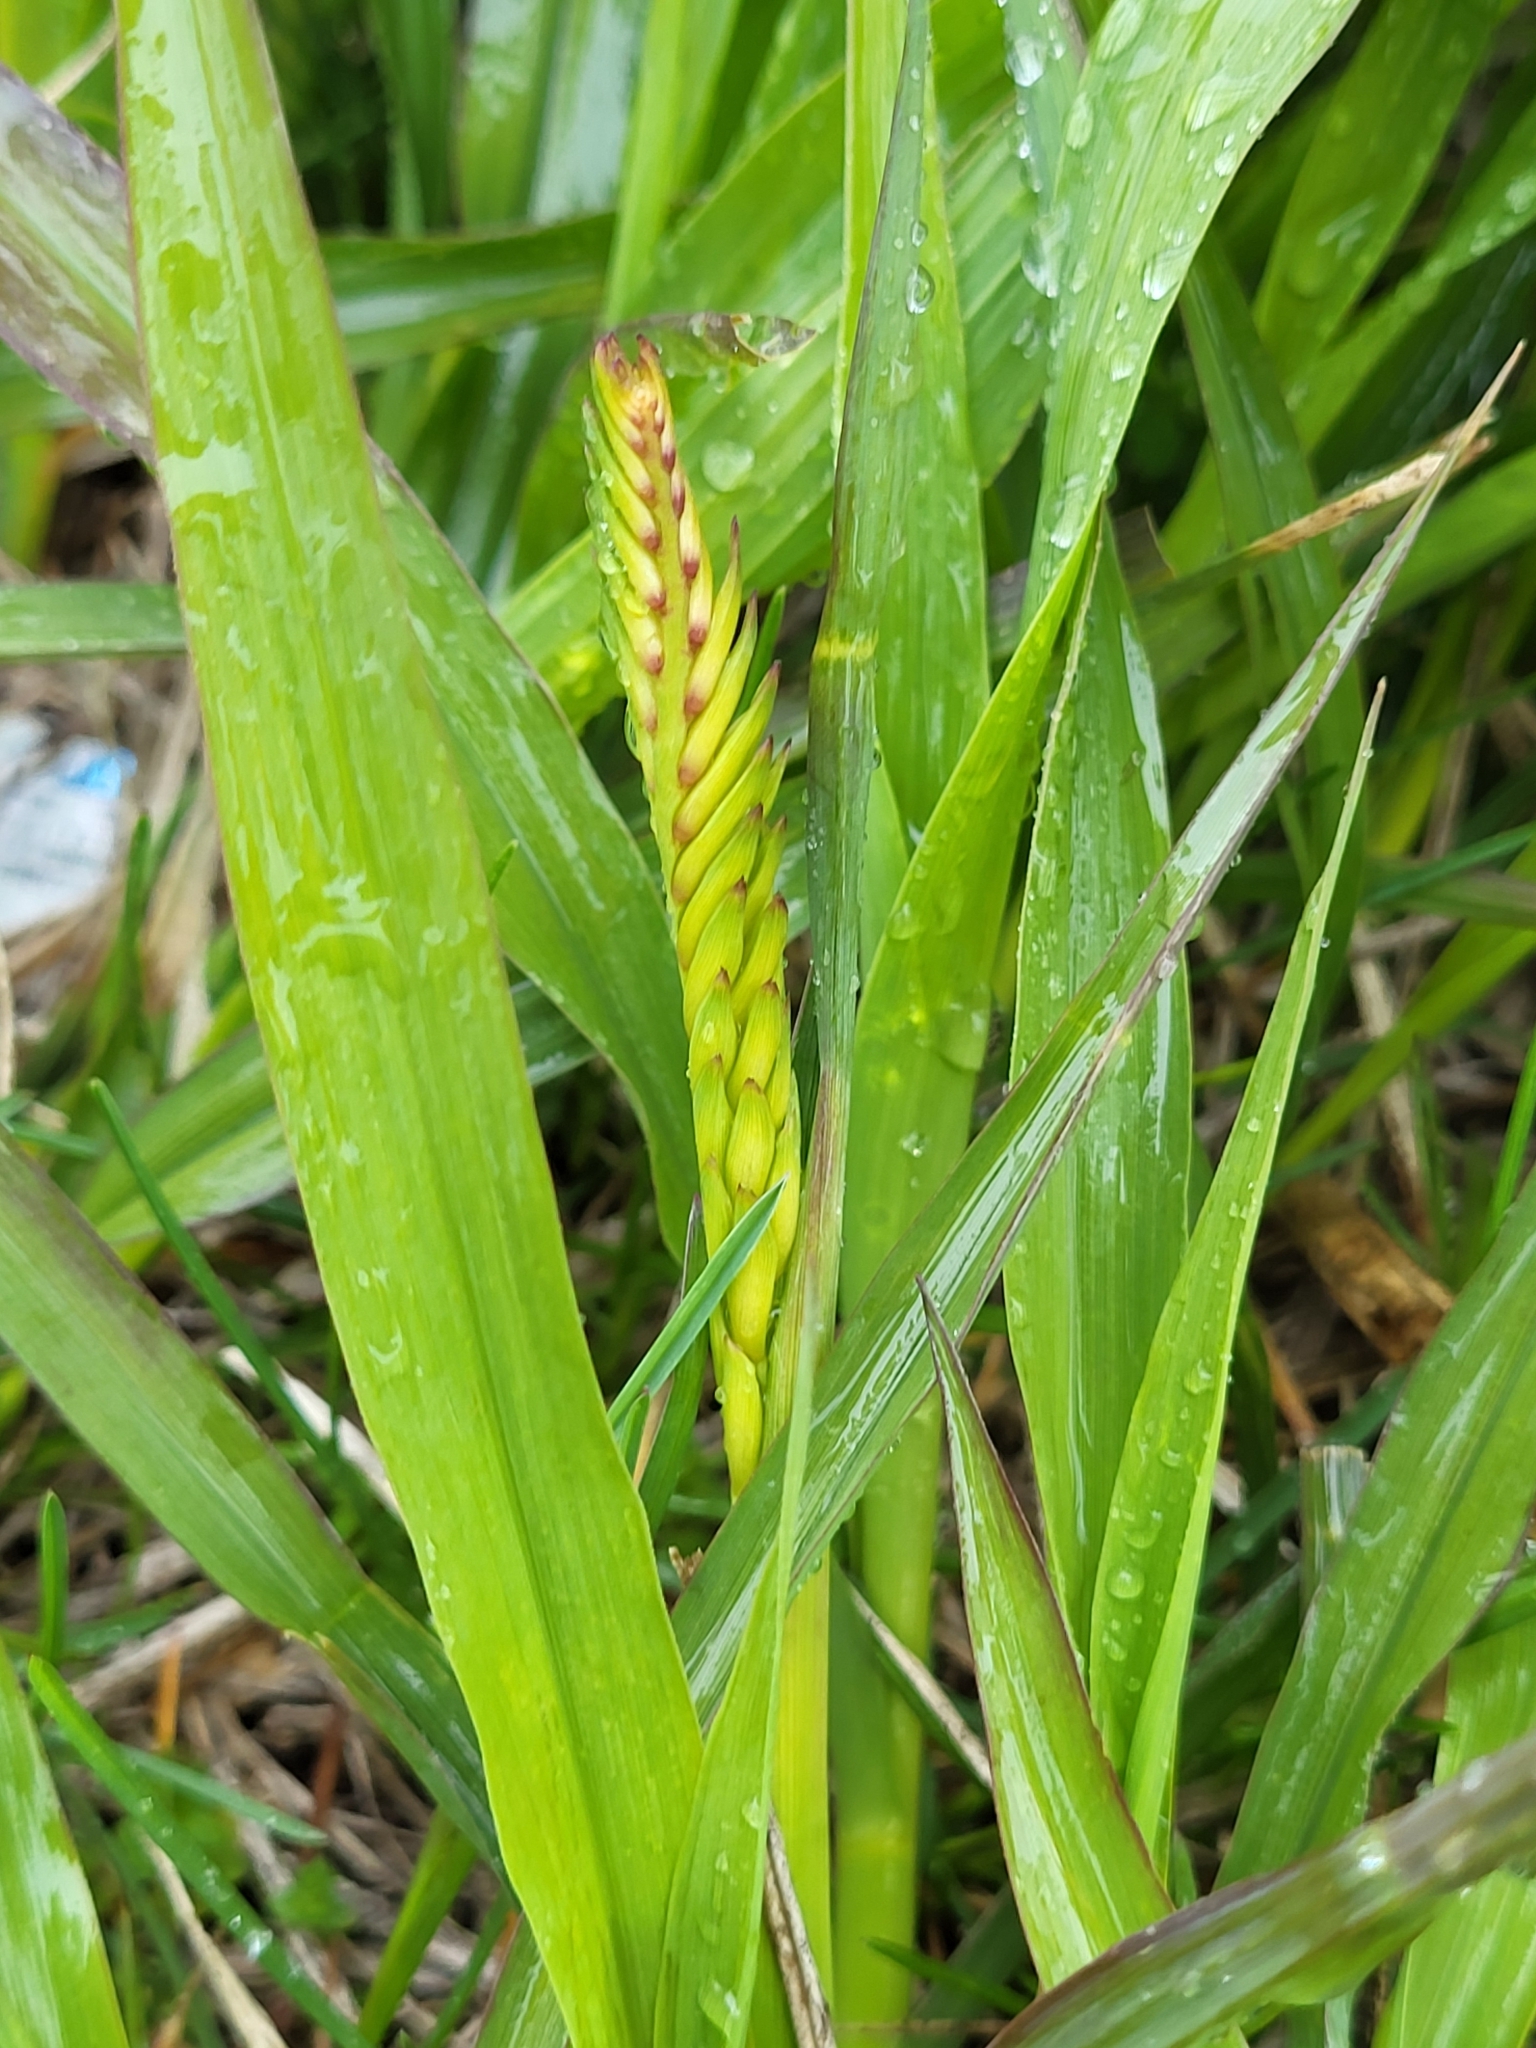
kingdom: Plantae
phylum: Tracheophyta
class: Liliopsida
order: Poales
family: Poaceae
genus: Tripsacum
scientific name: Tripsacum dactyloides
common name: Buffalo-grass
